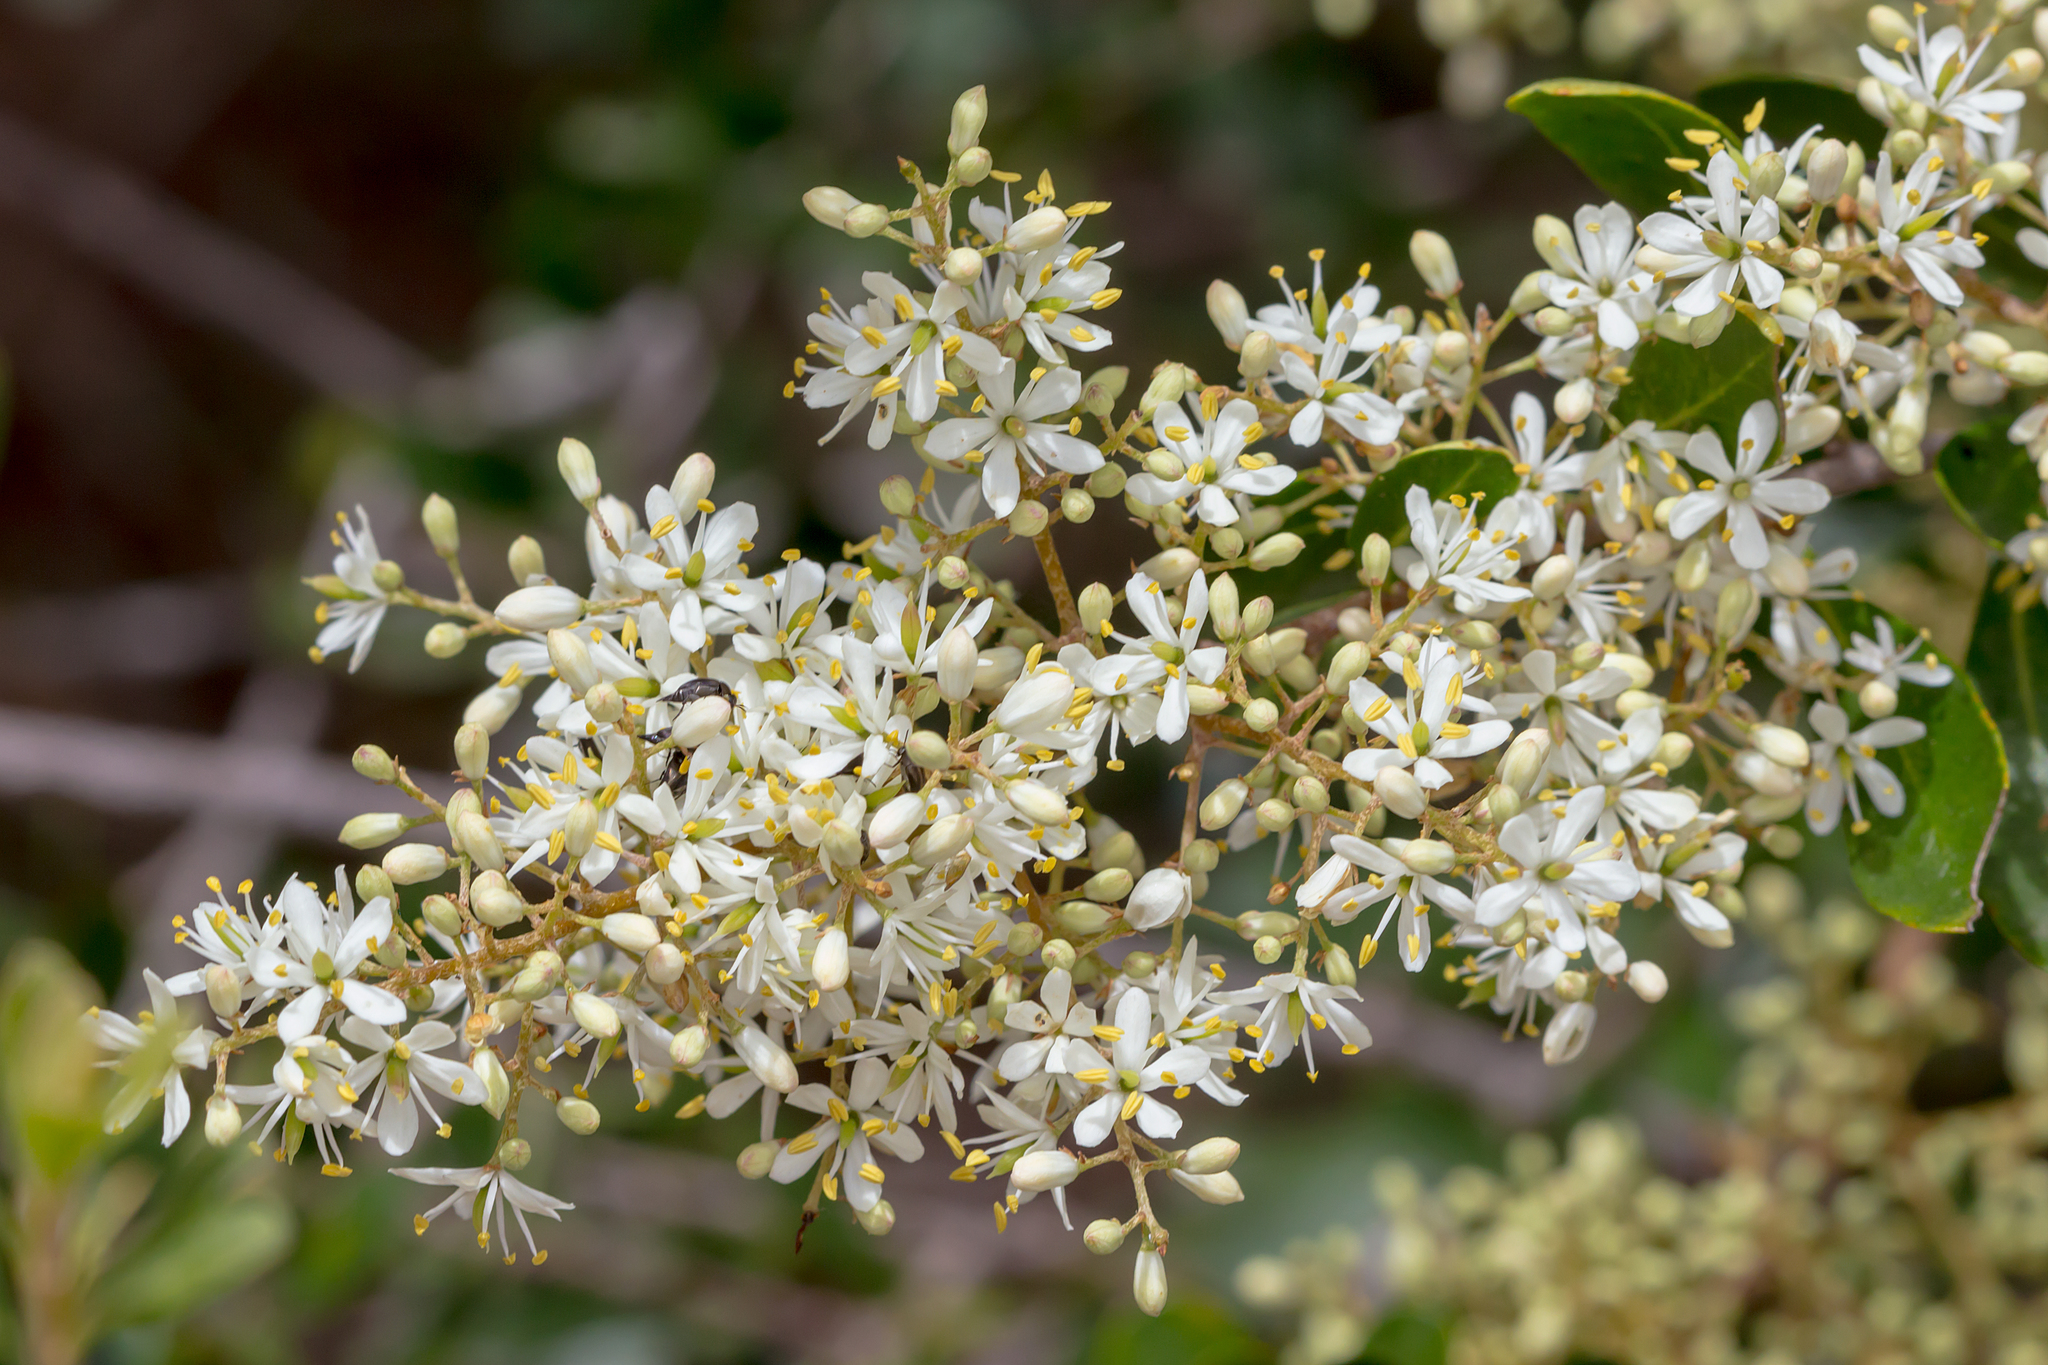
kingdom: Plantae
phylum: Tracheophyta
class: Magnoliopsida
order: Apiales
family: Pittosporaceae
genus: Bursaria
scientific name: Bursaria spinosa
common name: Australian blackthorn
